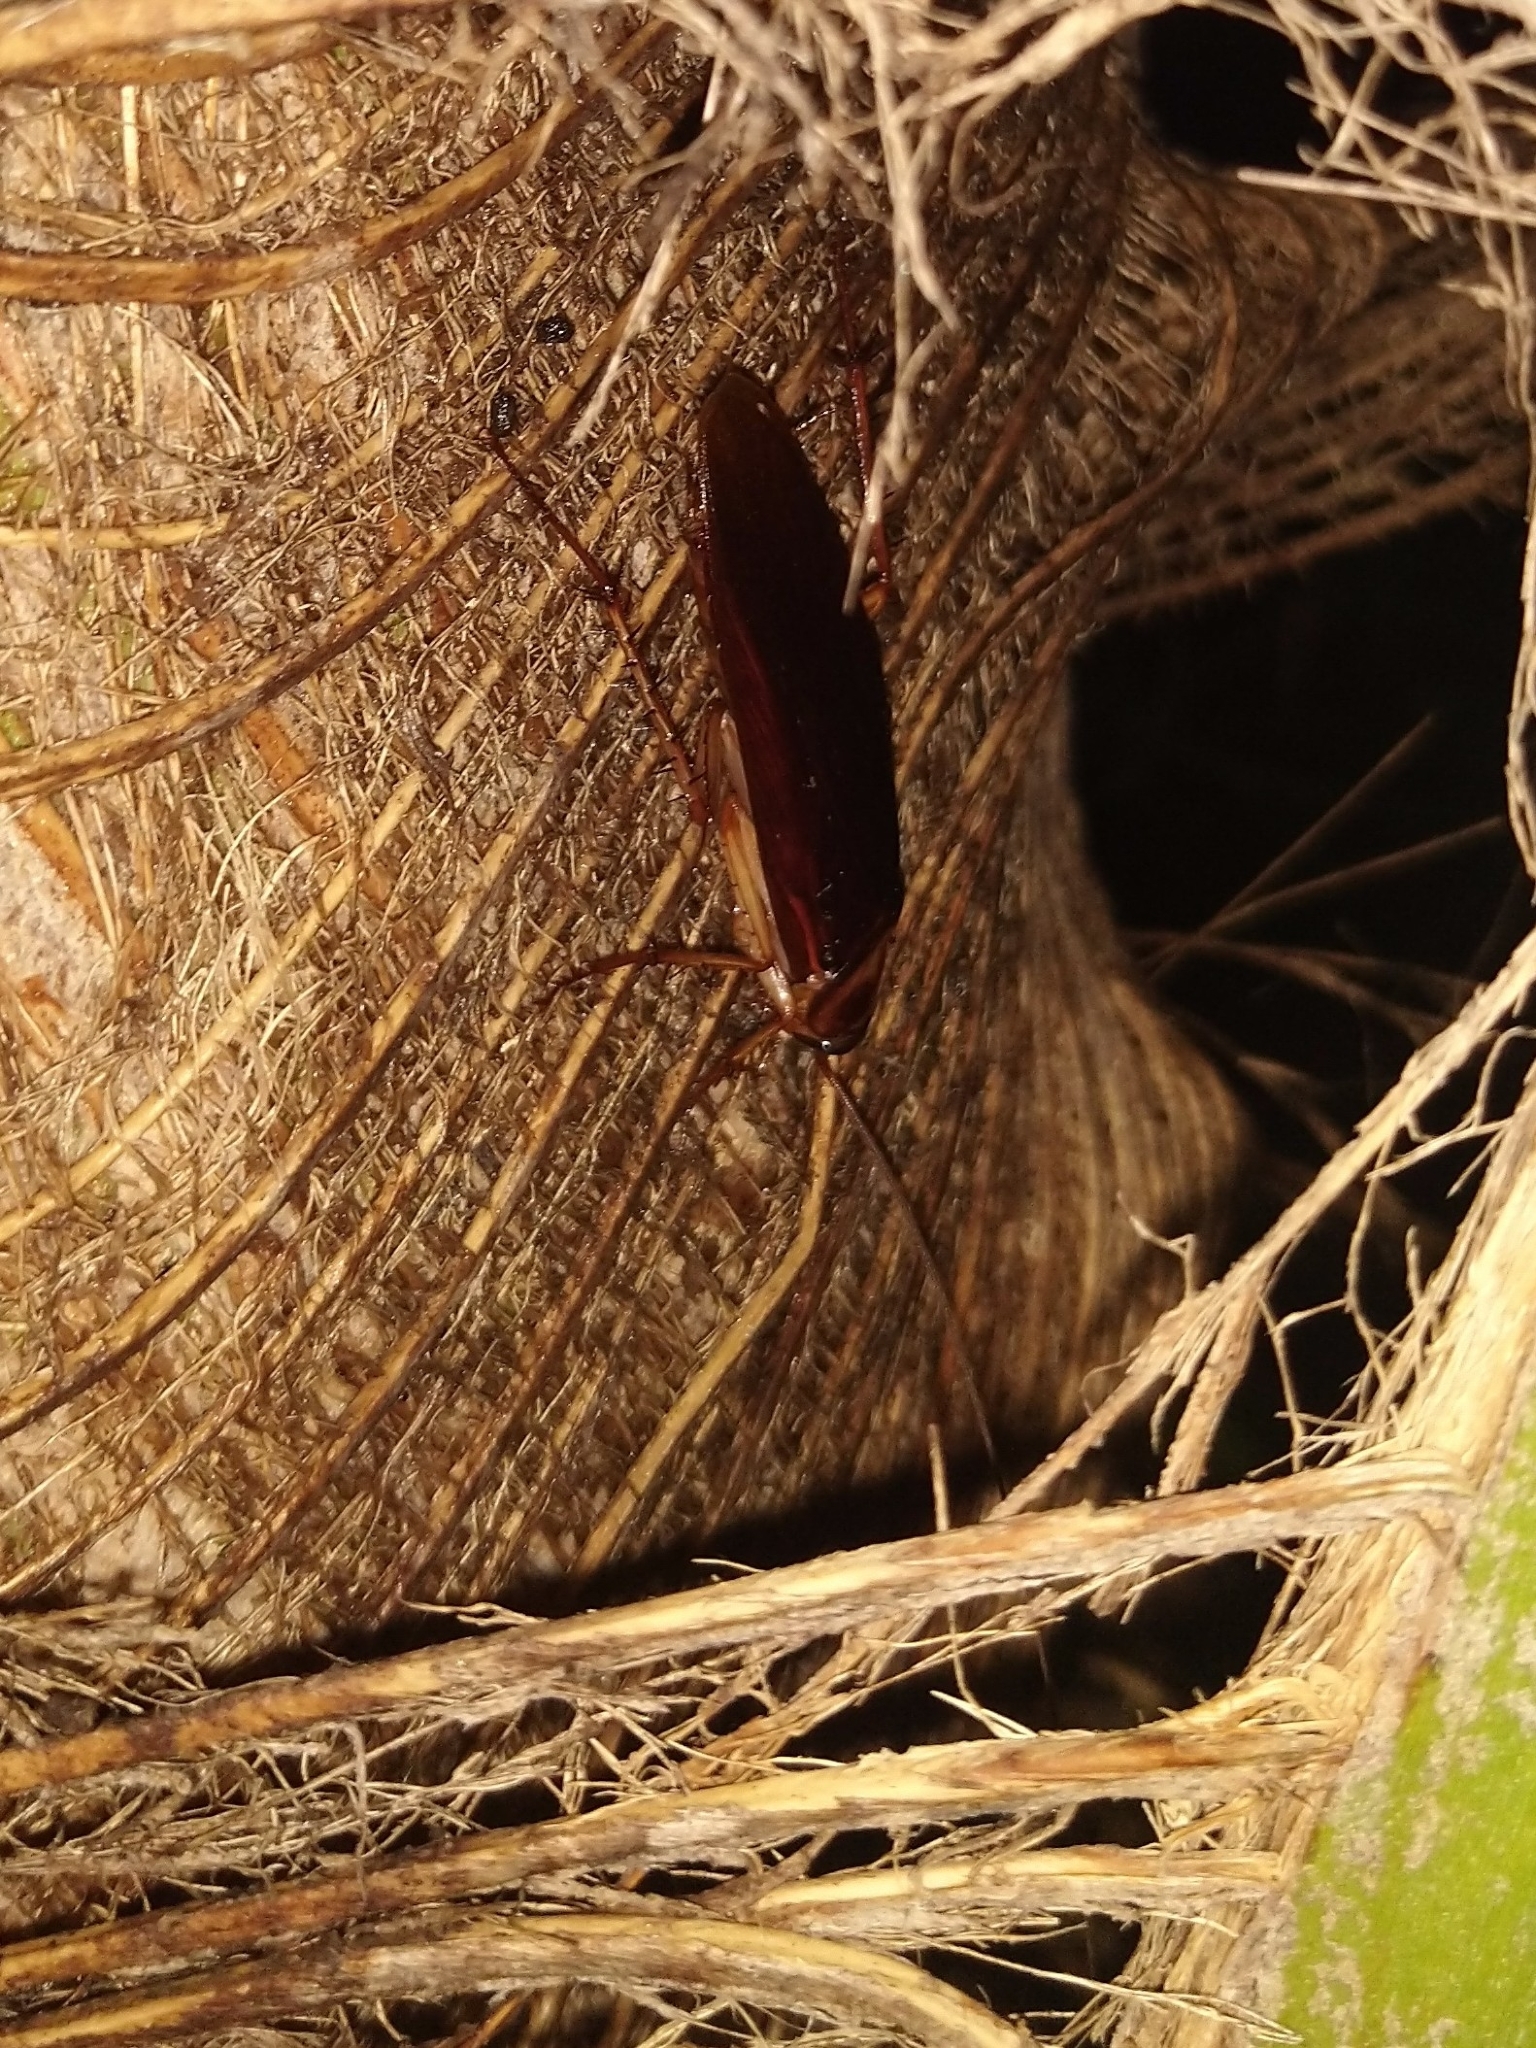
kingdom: Animalia
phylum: Arthropoda
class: Insecta
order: Blattodea
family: Blattidae
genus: Periplaneta
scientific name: Periplaneta americana
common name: American cockroach
